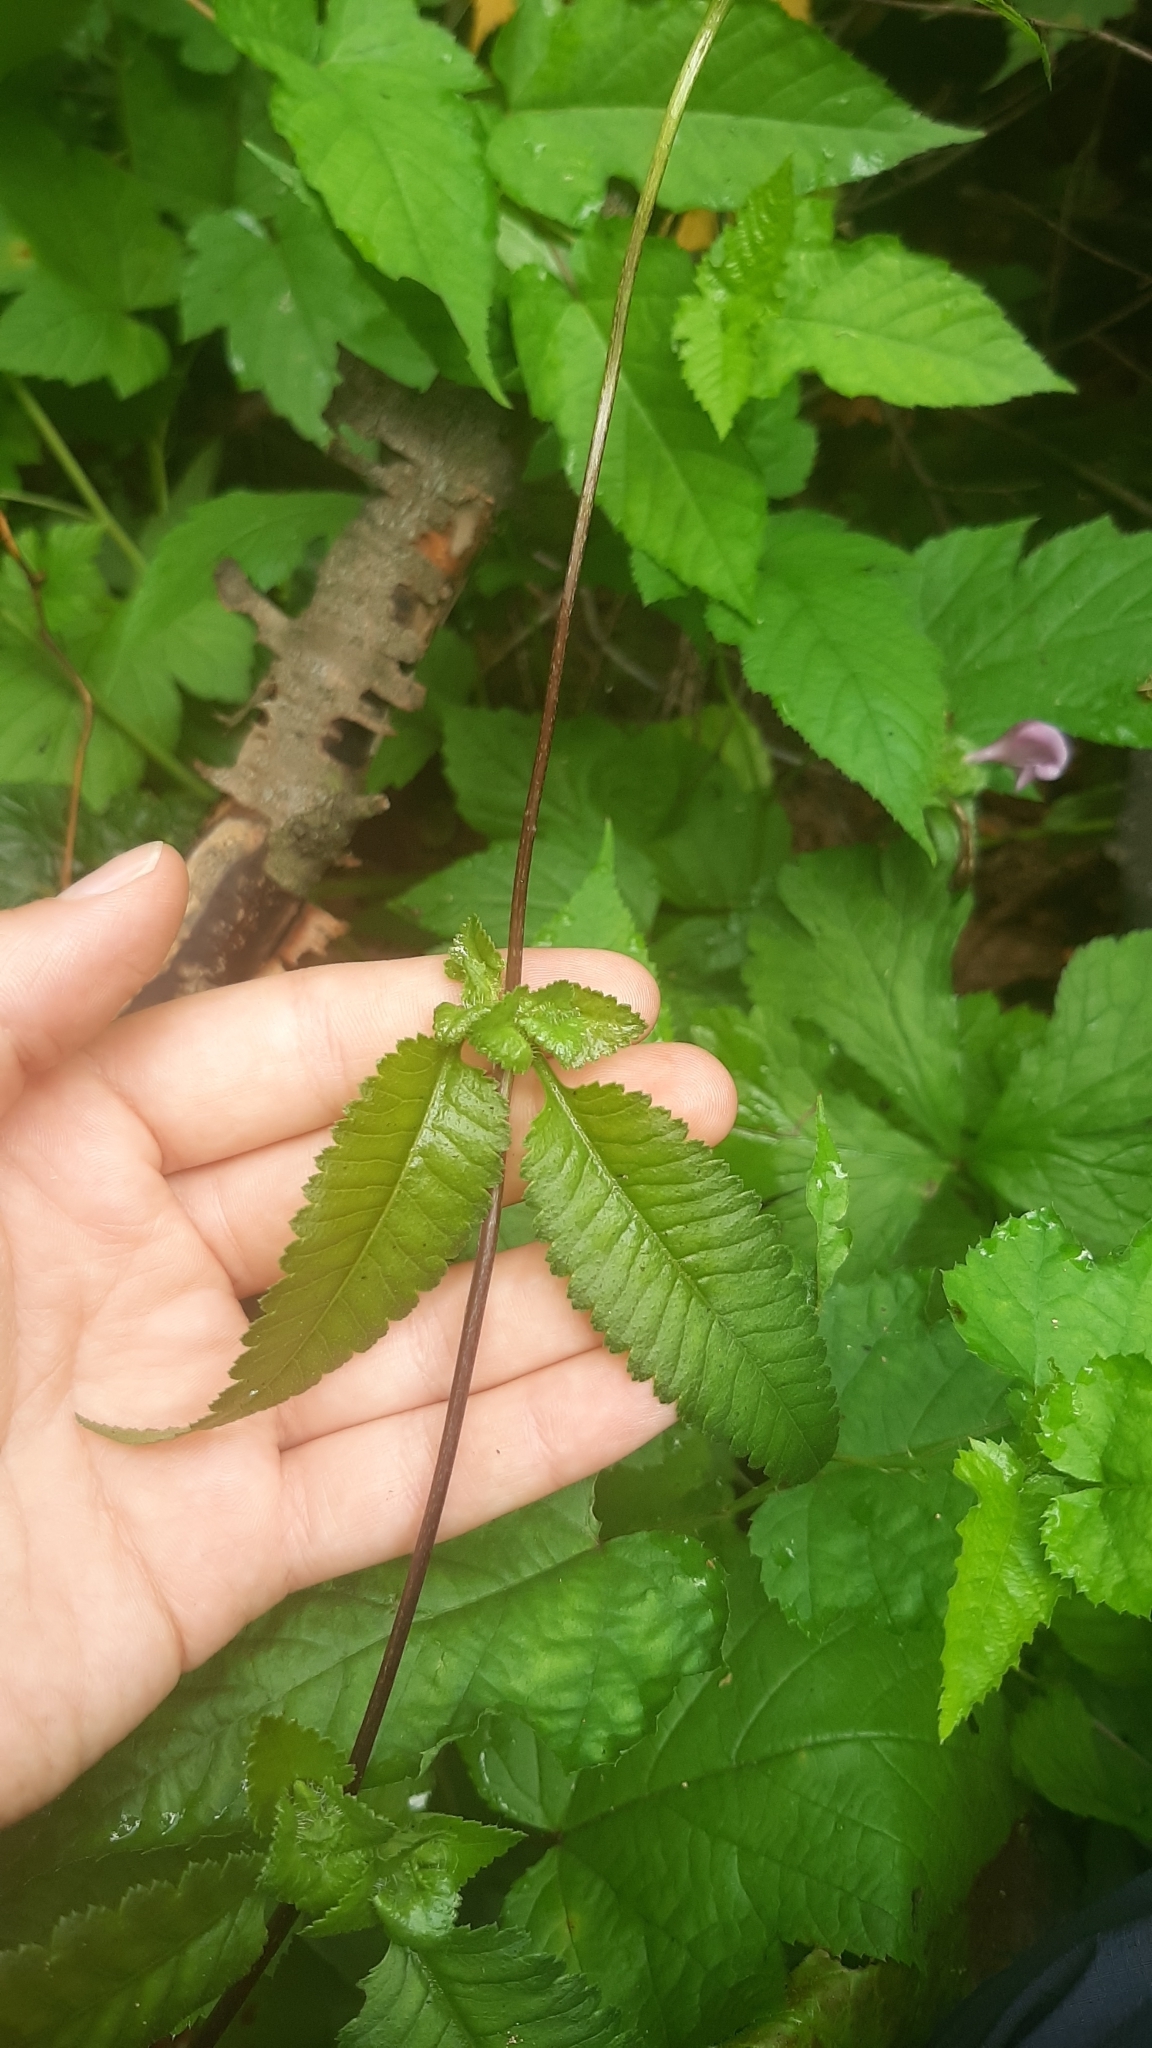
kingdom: Plantae
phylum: Tracheophyta
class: Magnoliopsida
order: Lamiales
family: Orobanchaceae
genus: Pedicularis
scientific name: Pedicularis resupinata
